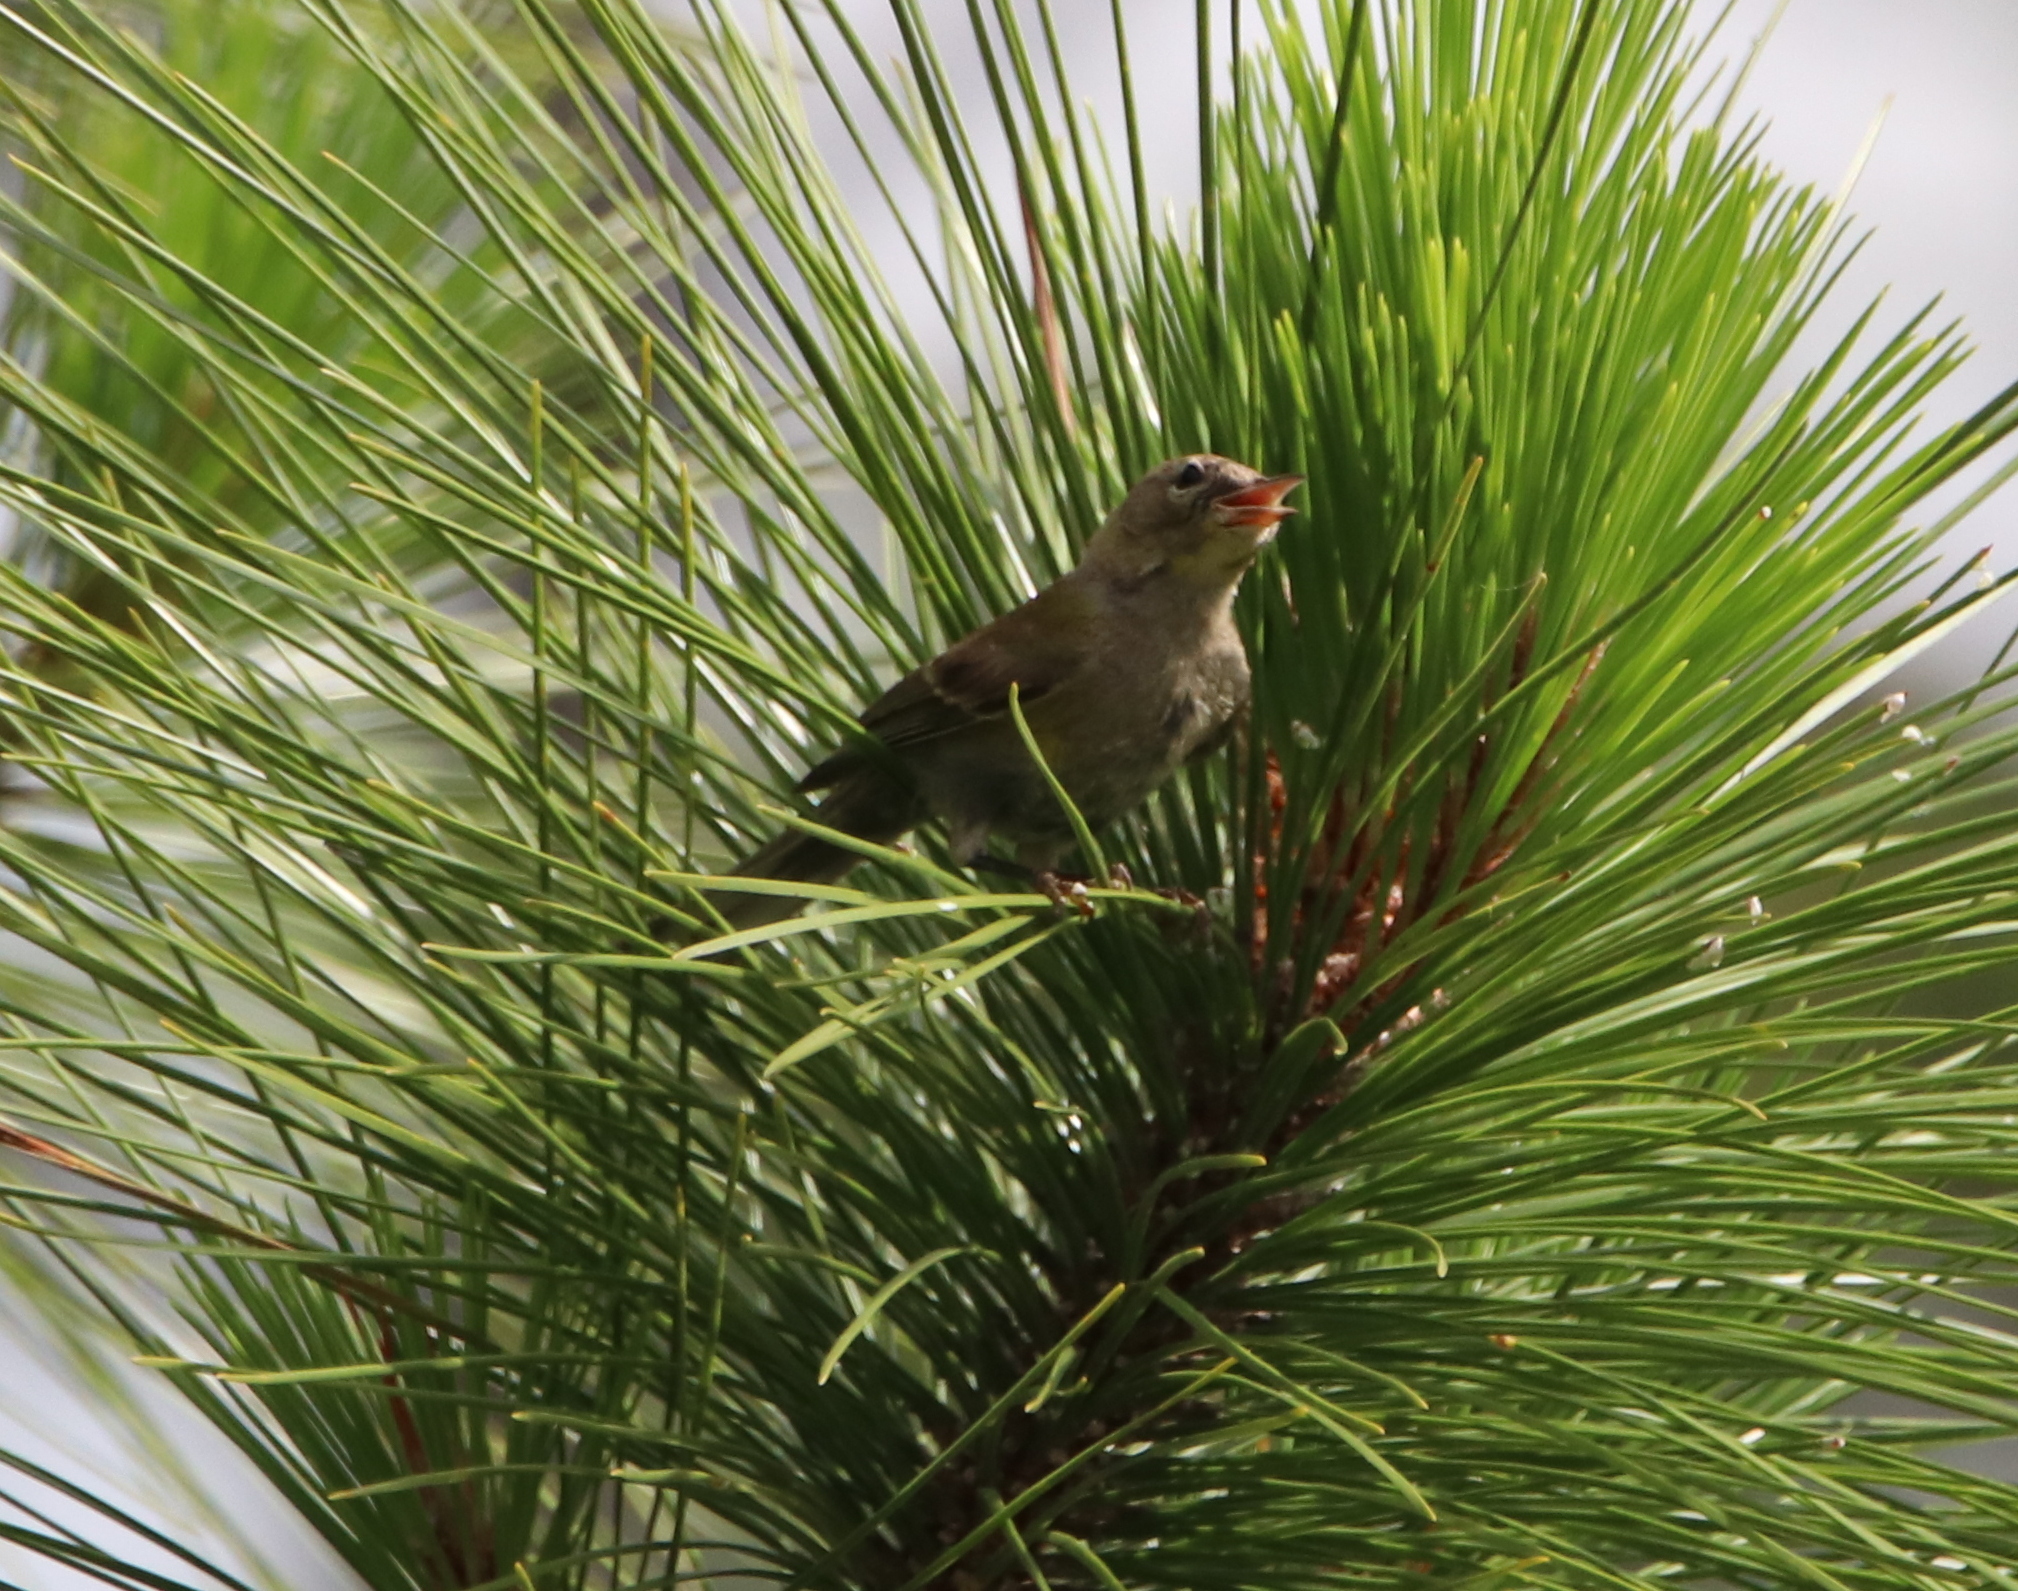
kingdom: Animalia
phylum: Chordata
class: Aves
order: Passeriformes
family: Mimidae
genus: Mimus
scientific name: Mimus polyglottos
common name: Northern mockingbird
